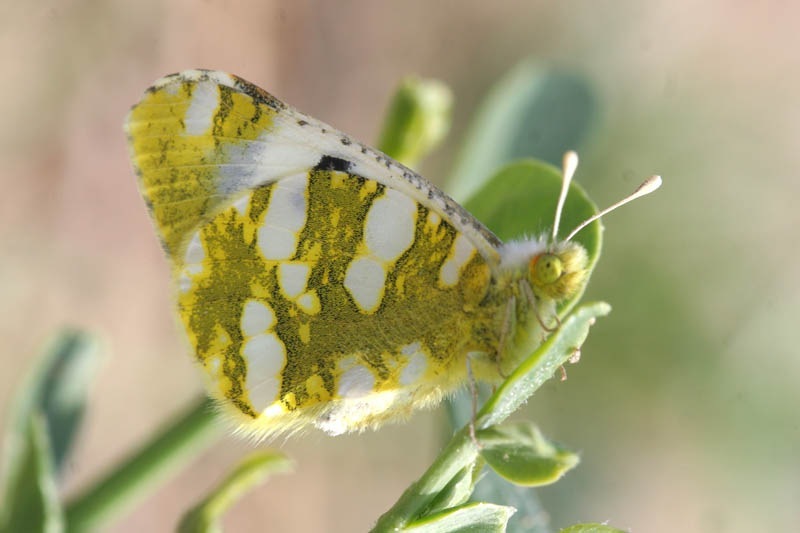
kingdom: Animalia
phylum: Arthropoda
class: Insecta
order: Lepidoptera
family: Pieridae
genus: Zegris
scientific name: Zegris fausti
